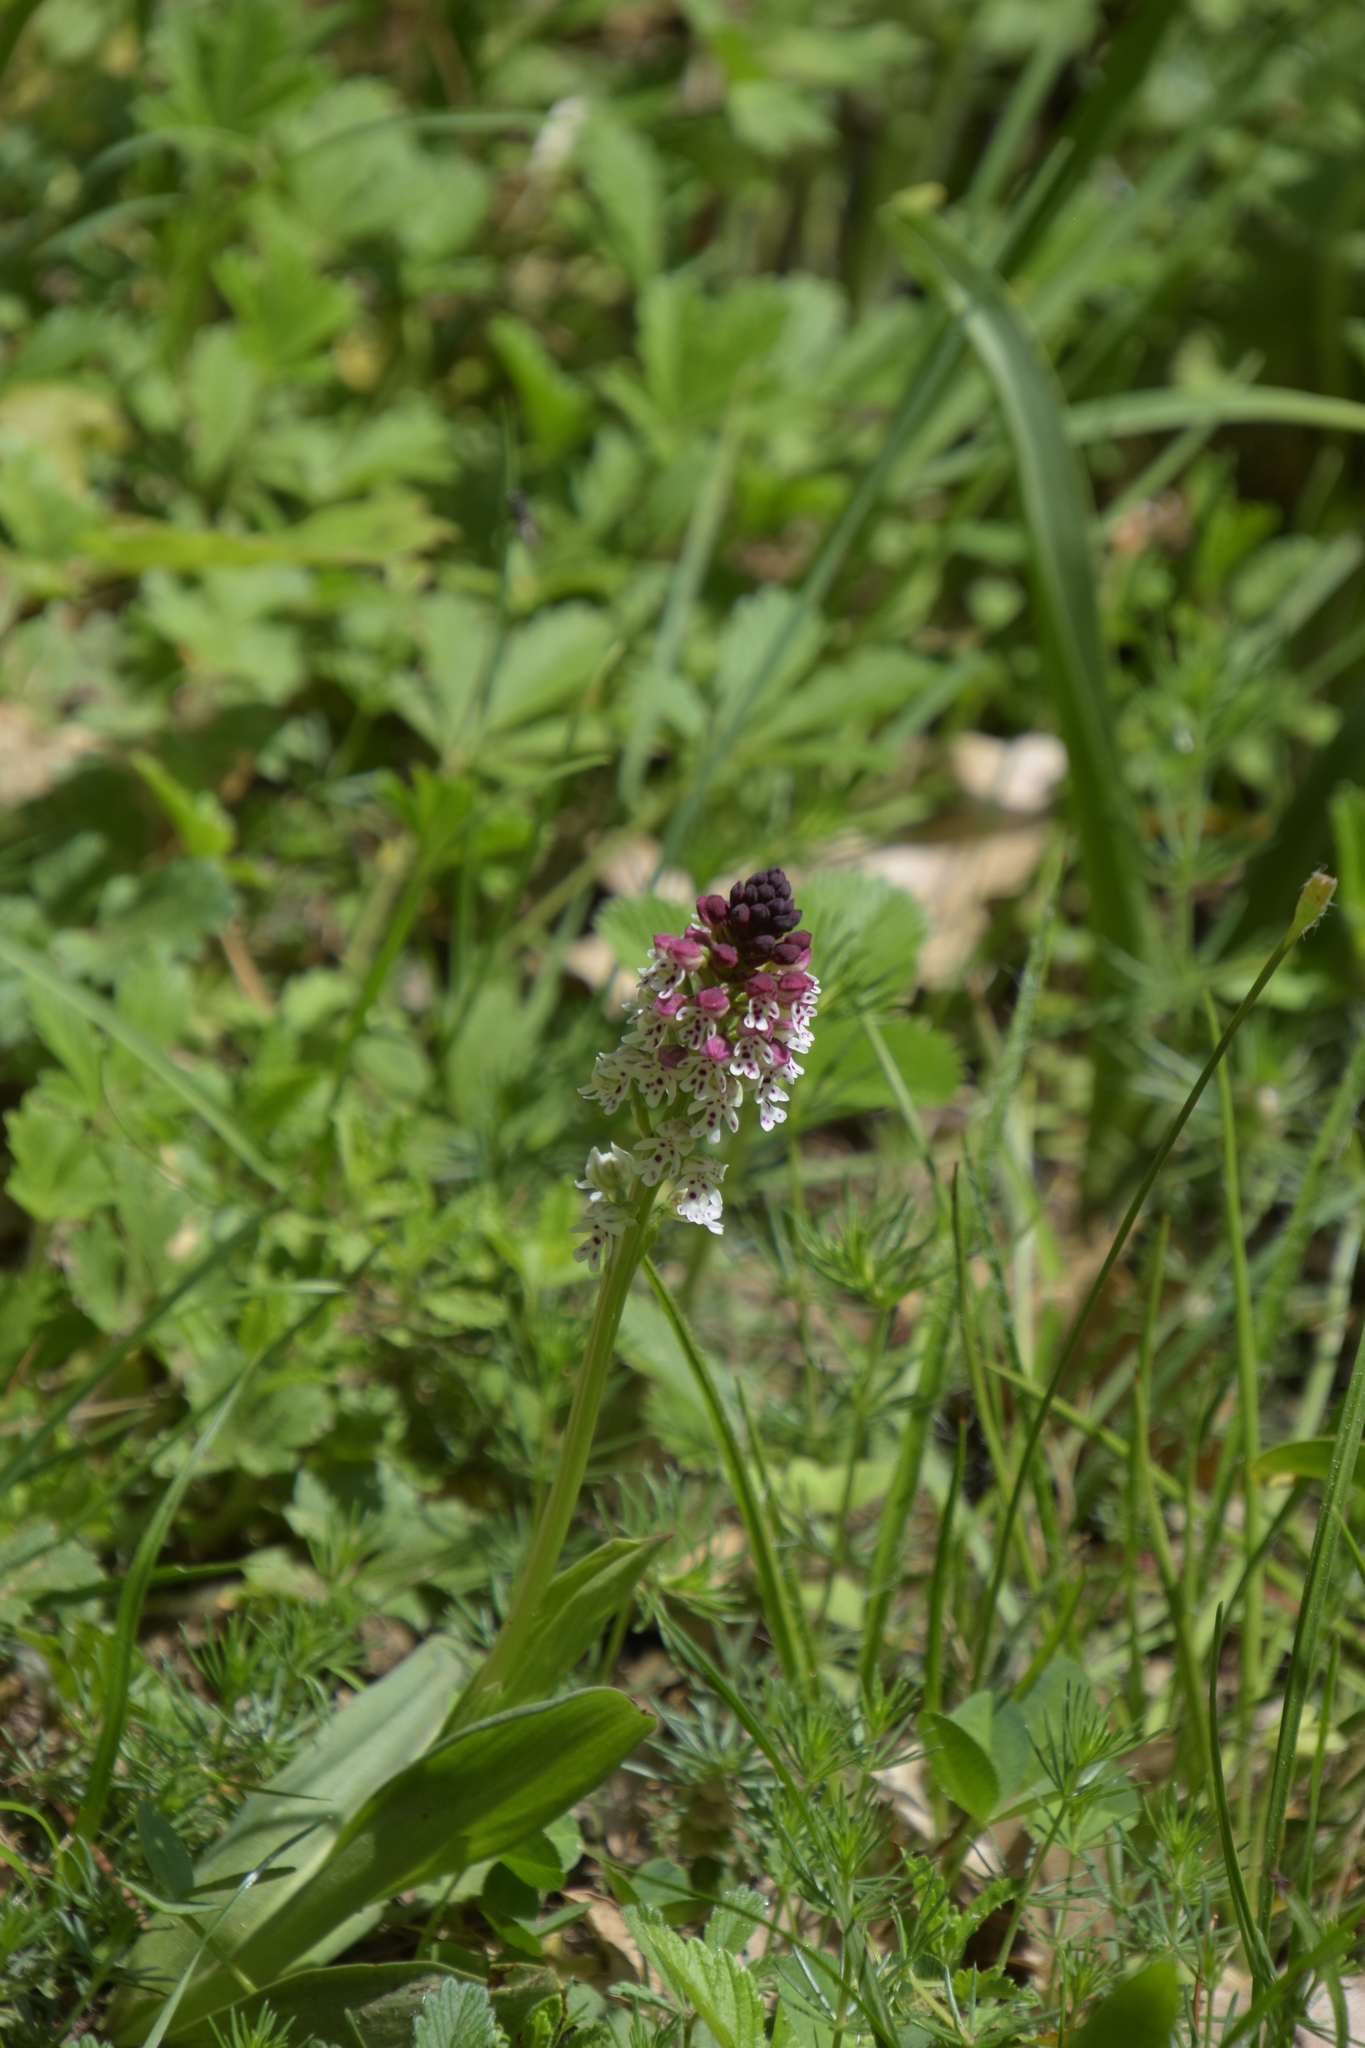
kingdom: Plantae
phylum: Tracheophyta
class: Liliopsida
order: Asparagales
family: Orchidaceae
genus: Neotinea
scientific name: Neotinea ustulata
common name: Burnt orchid
